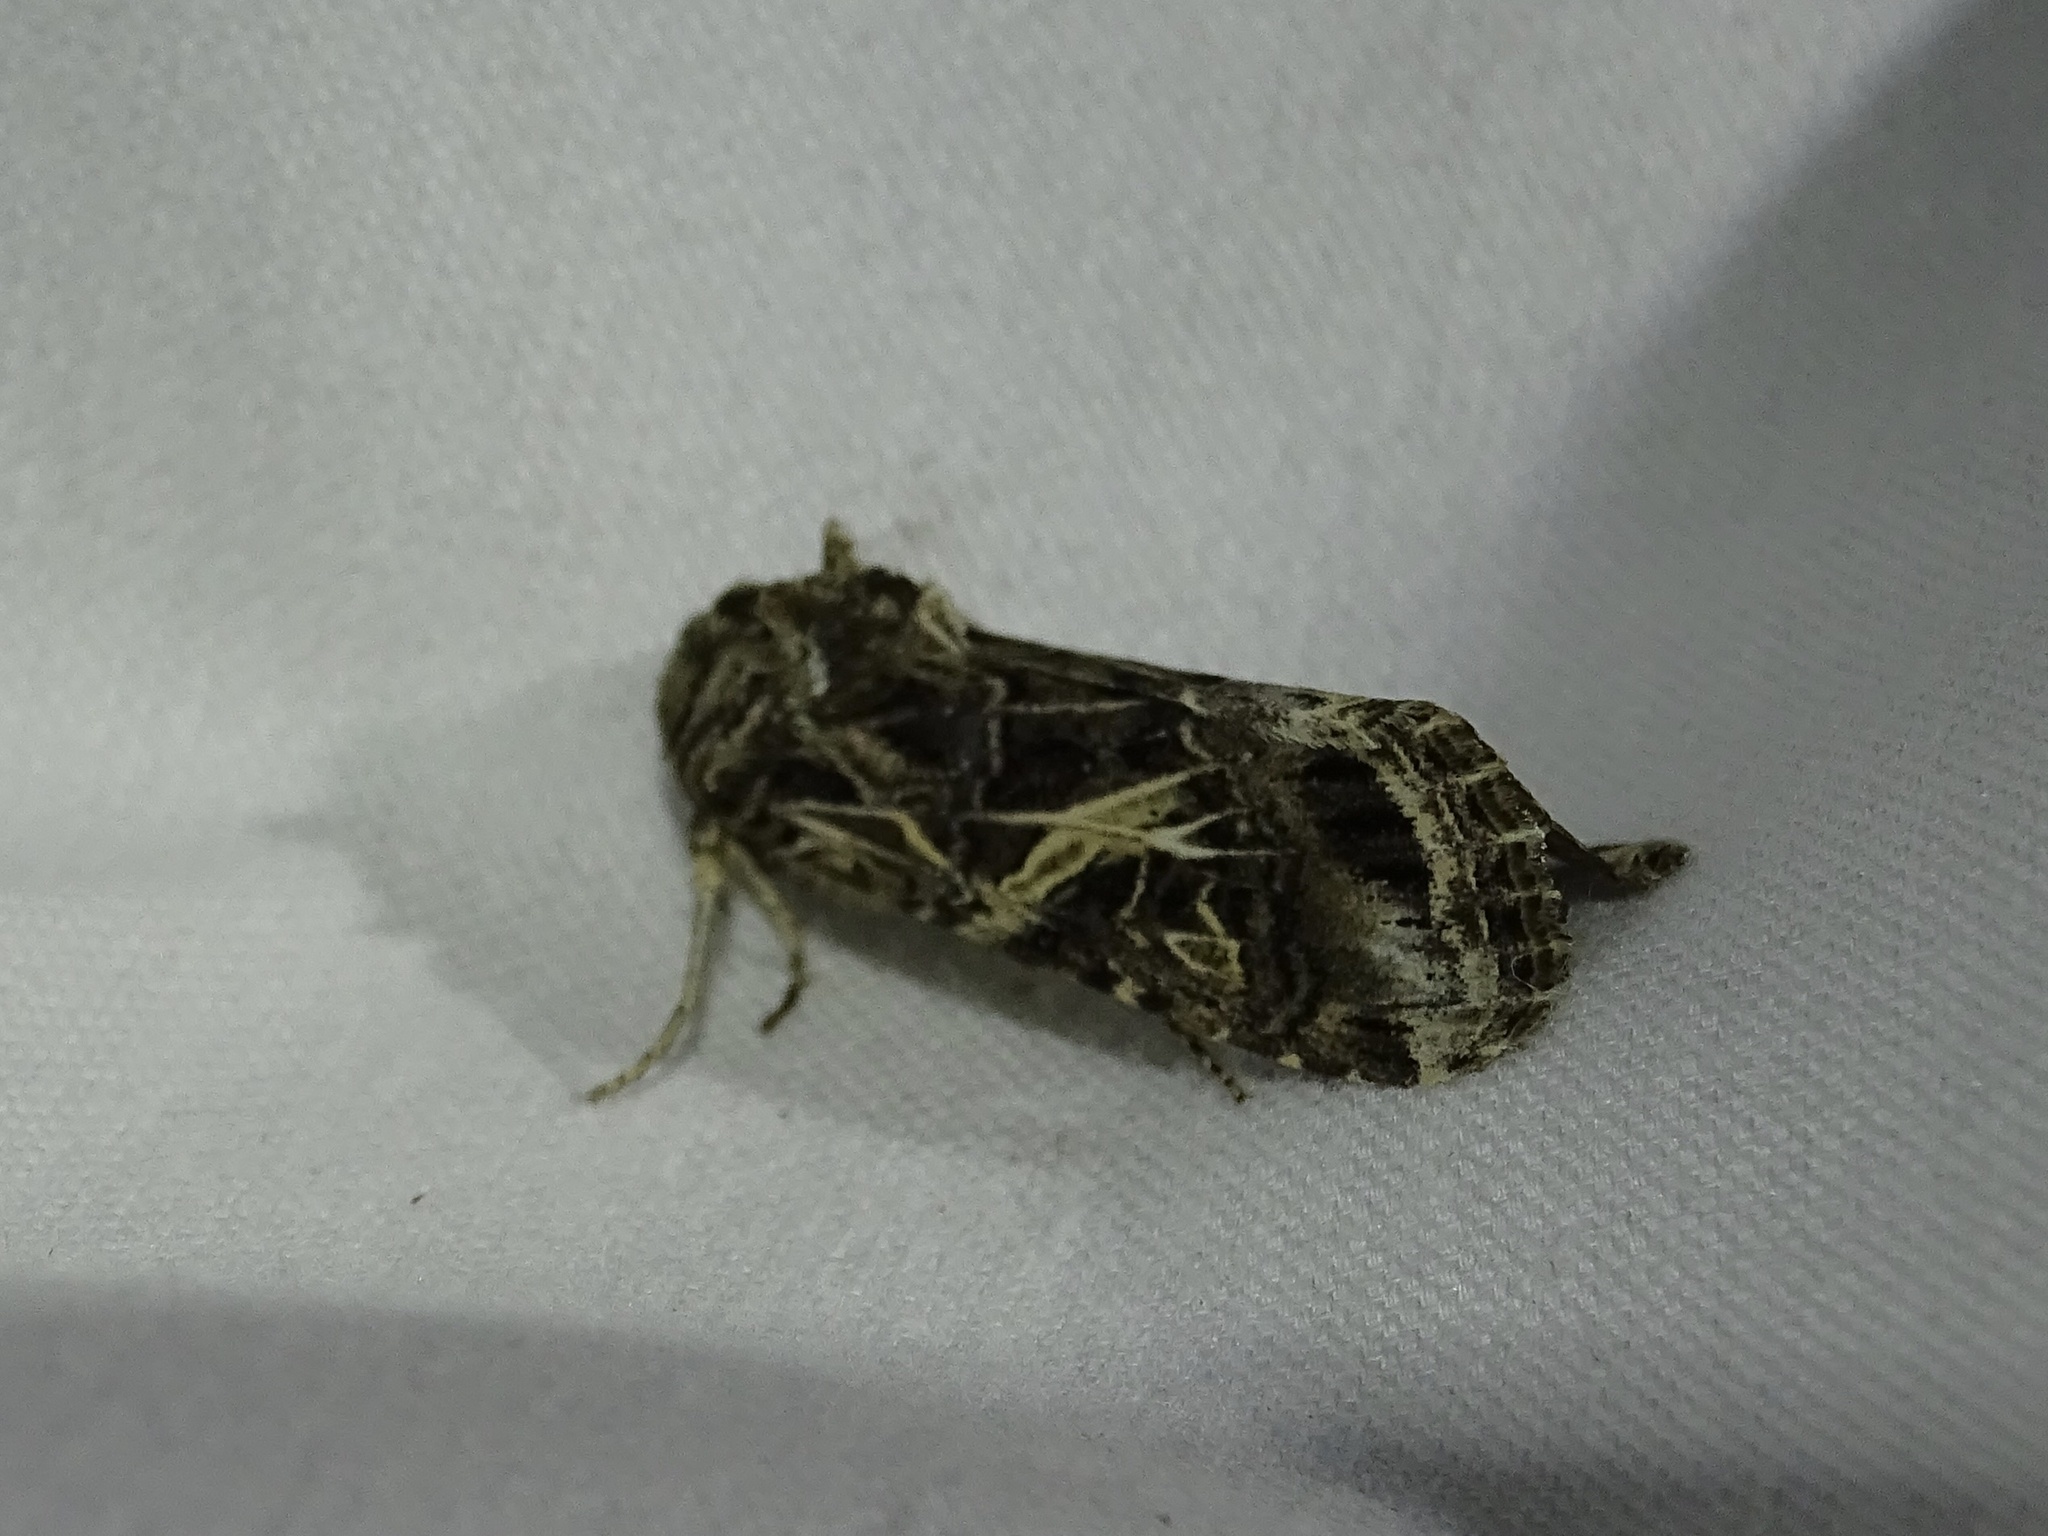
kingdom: Animalia
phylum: Arthropoda
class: Insecta
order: Lepidoptera
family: Noctuidae
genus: Spodoptera
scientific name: Spodoptera ornithogalli
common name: Yellow-striped armyworm
